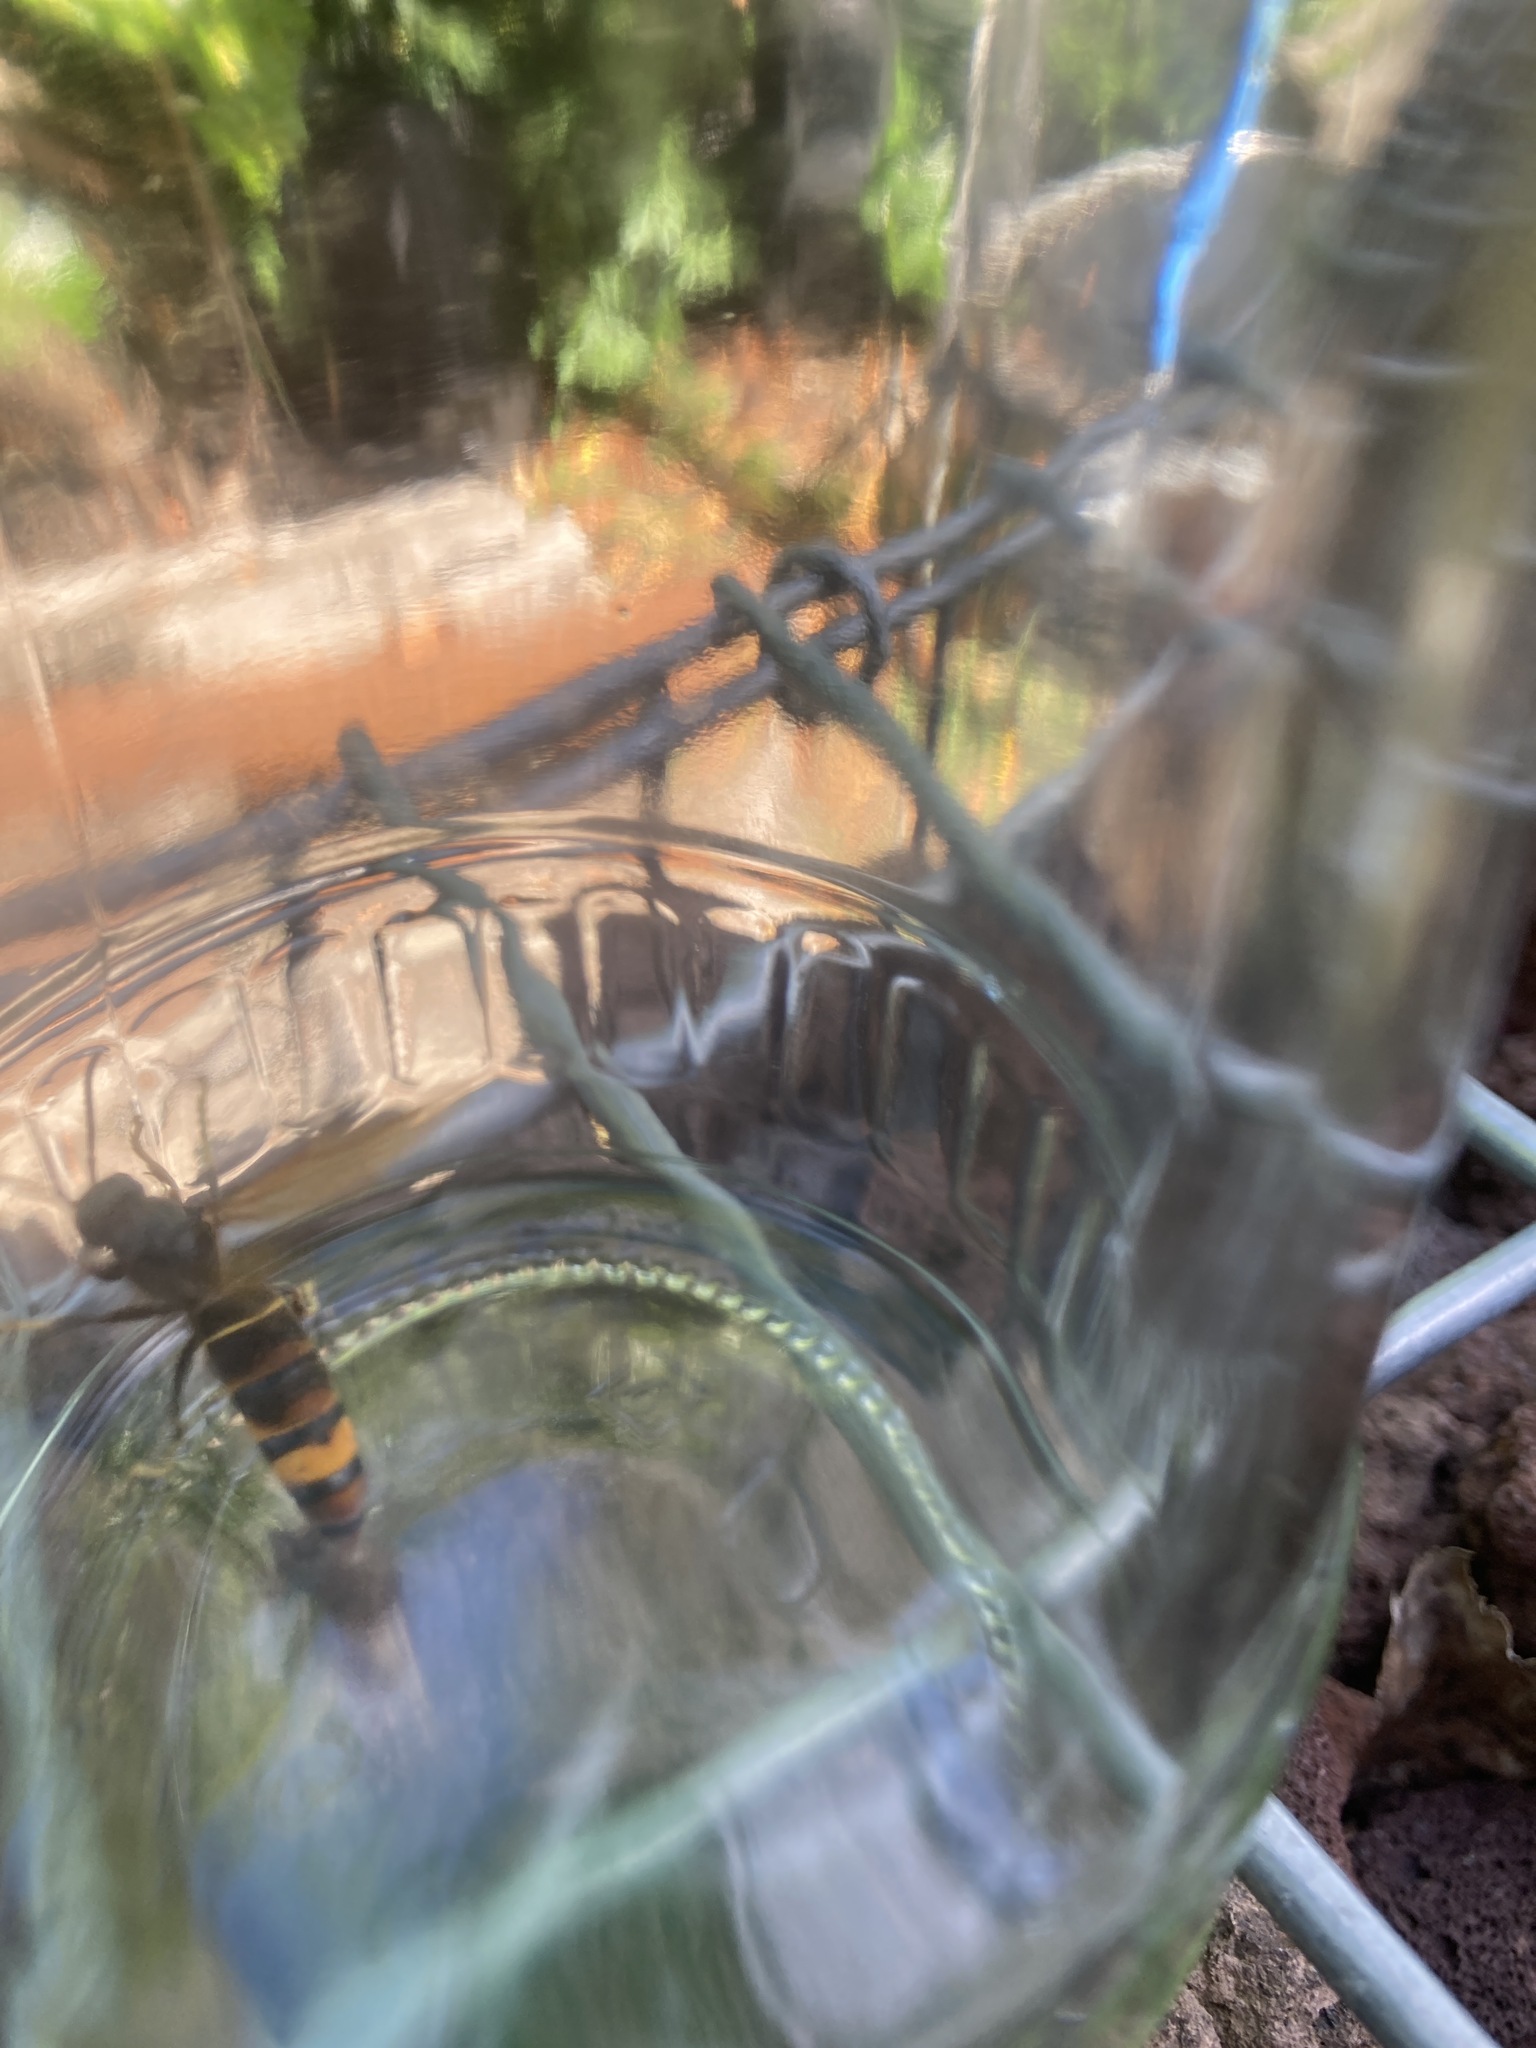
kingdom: Animalia
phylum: Arthropoda
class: Insecta
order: Hymenoptera
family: Vespidae
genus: Vespa
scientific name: Vespa velutina
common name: Asian hornet
